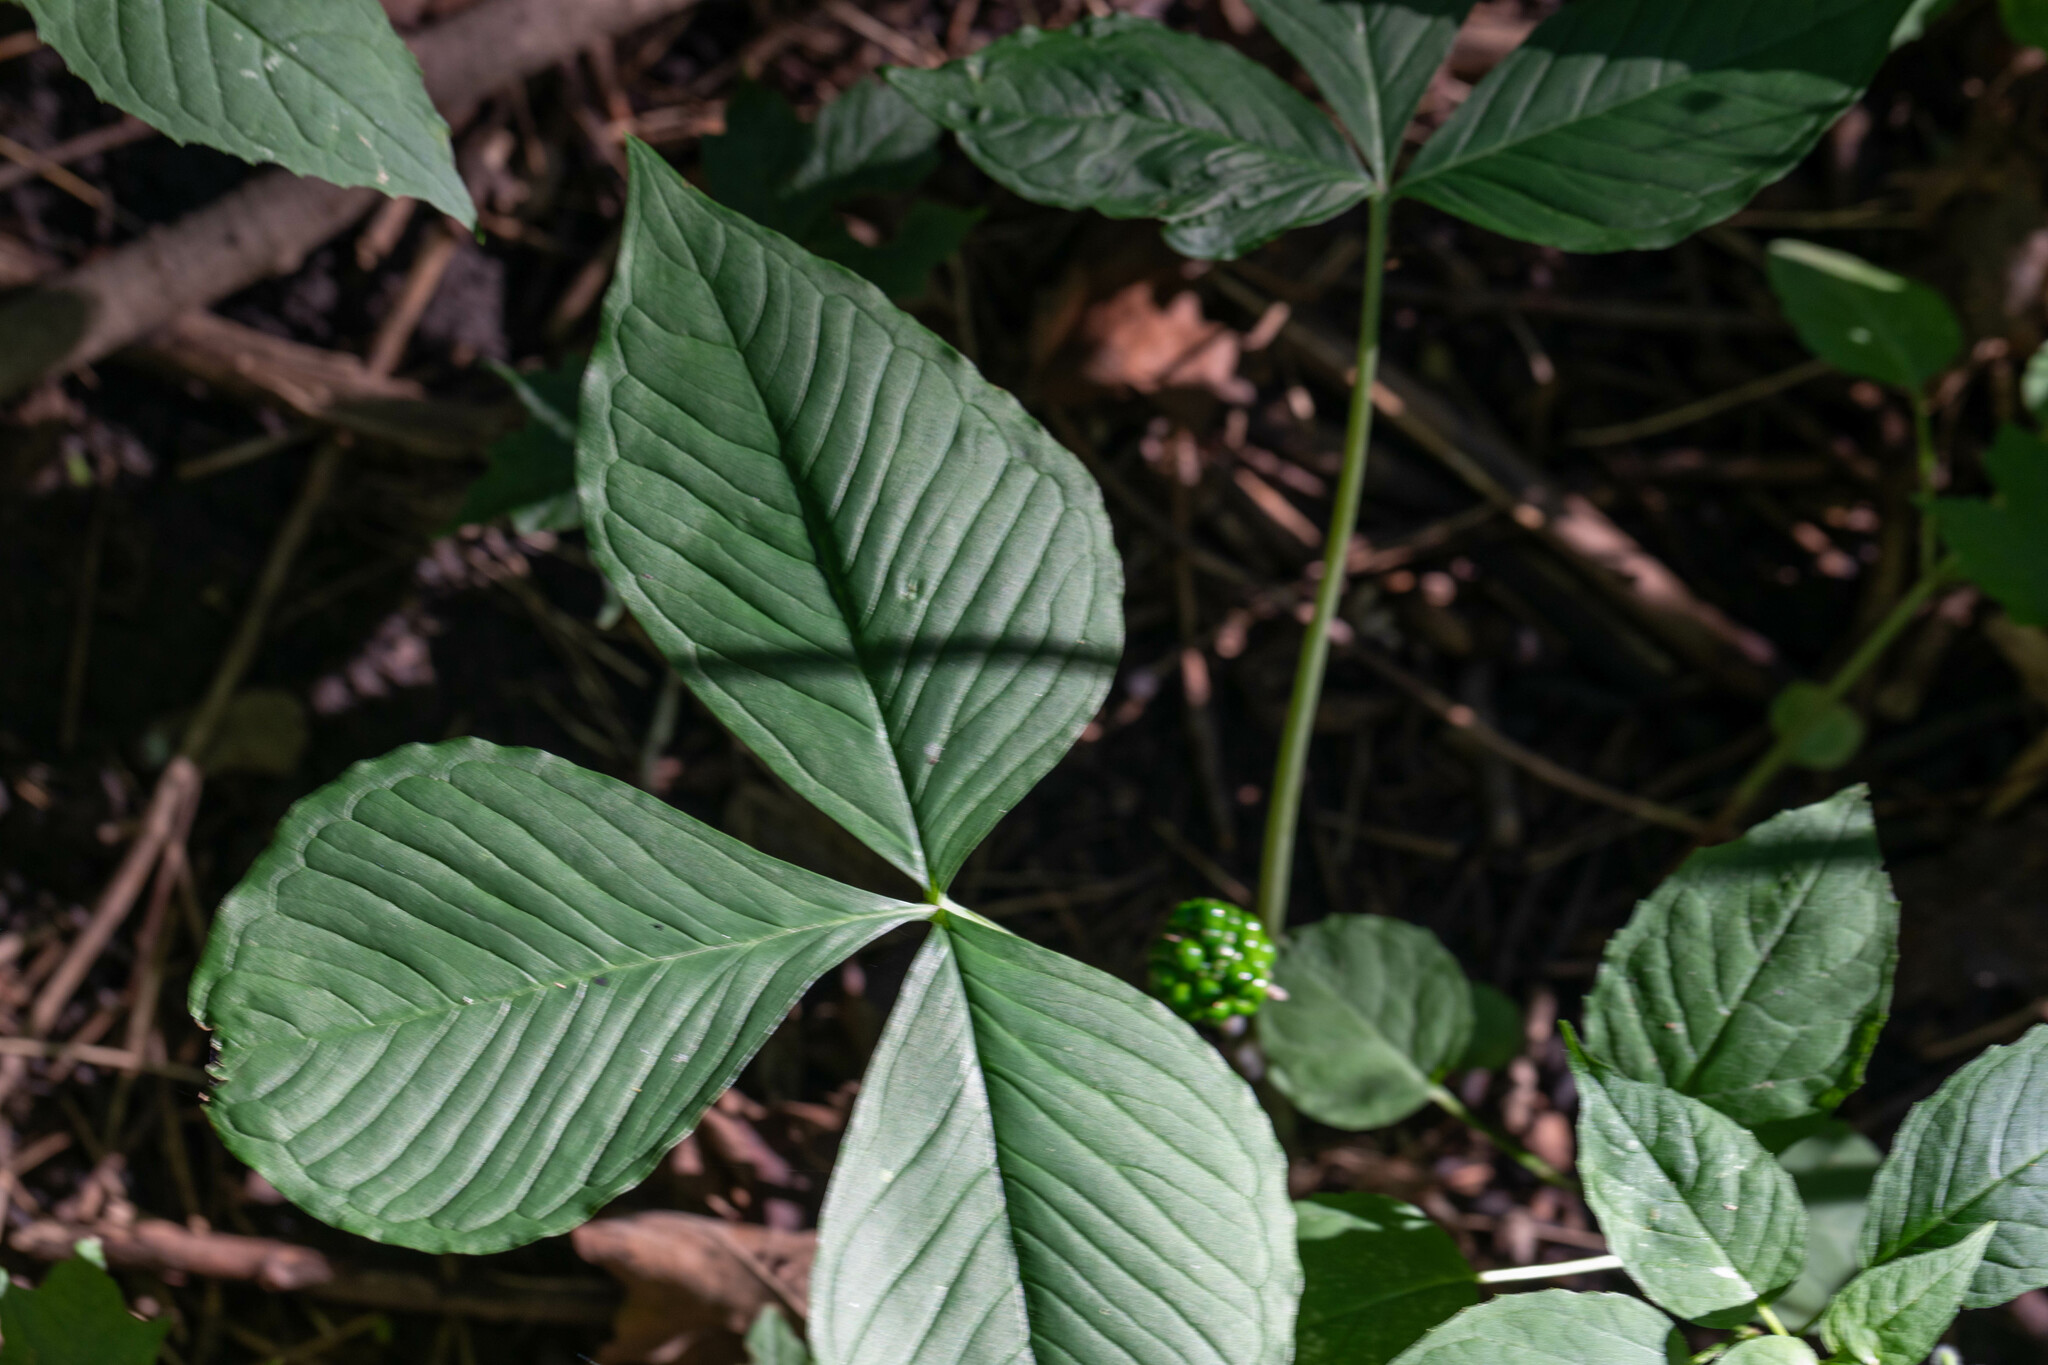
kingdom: Plantae
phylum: Tracheophyta
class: Liliopsida
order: Alismatales
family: Araceae
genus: Arisaema
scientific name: Arisaema triphyllum
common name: Jack-in-the-pulpit
